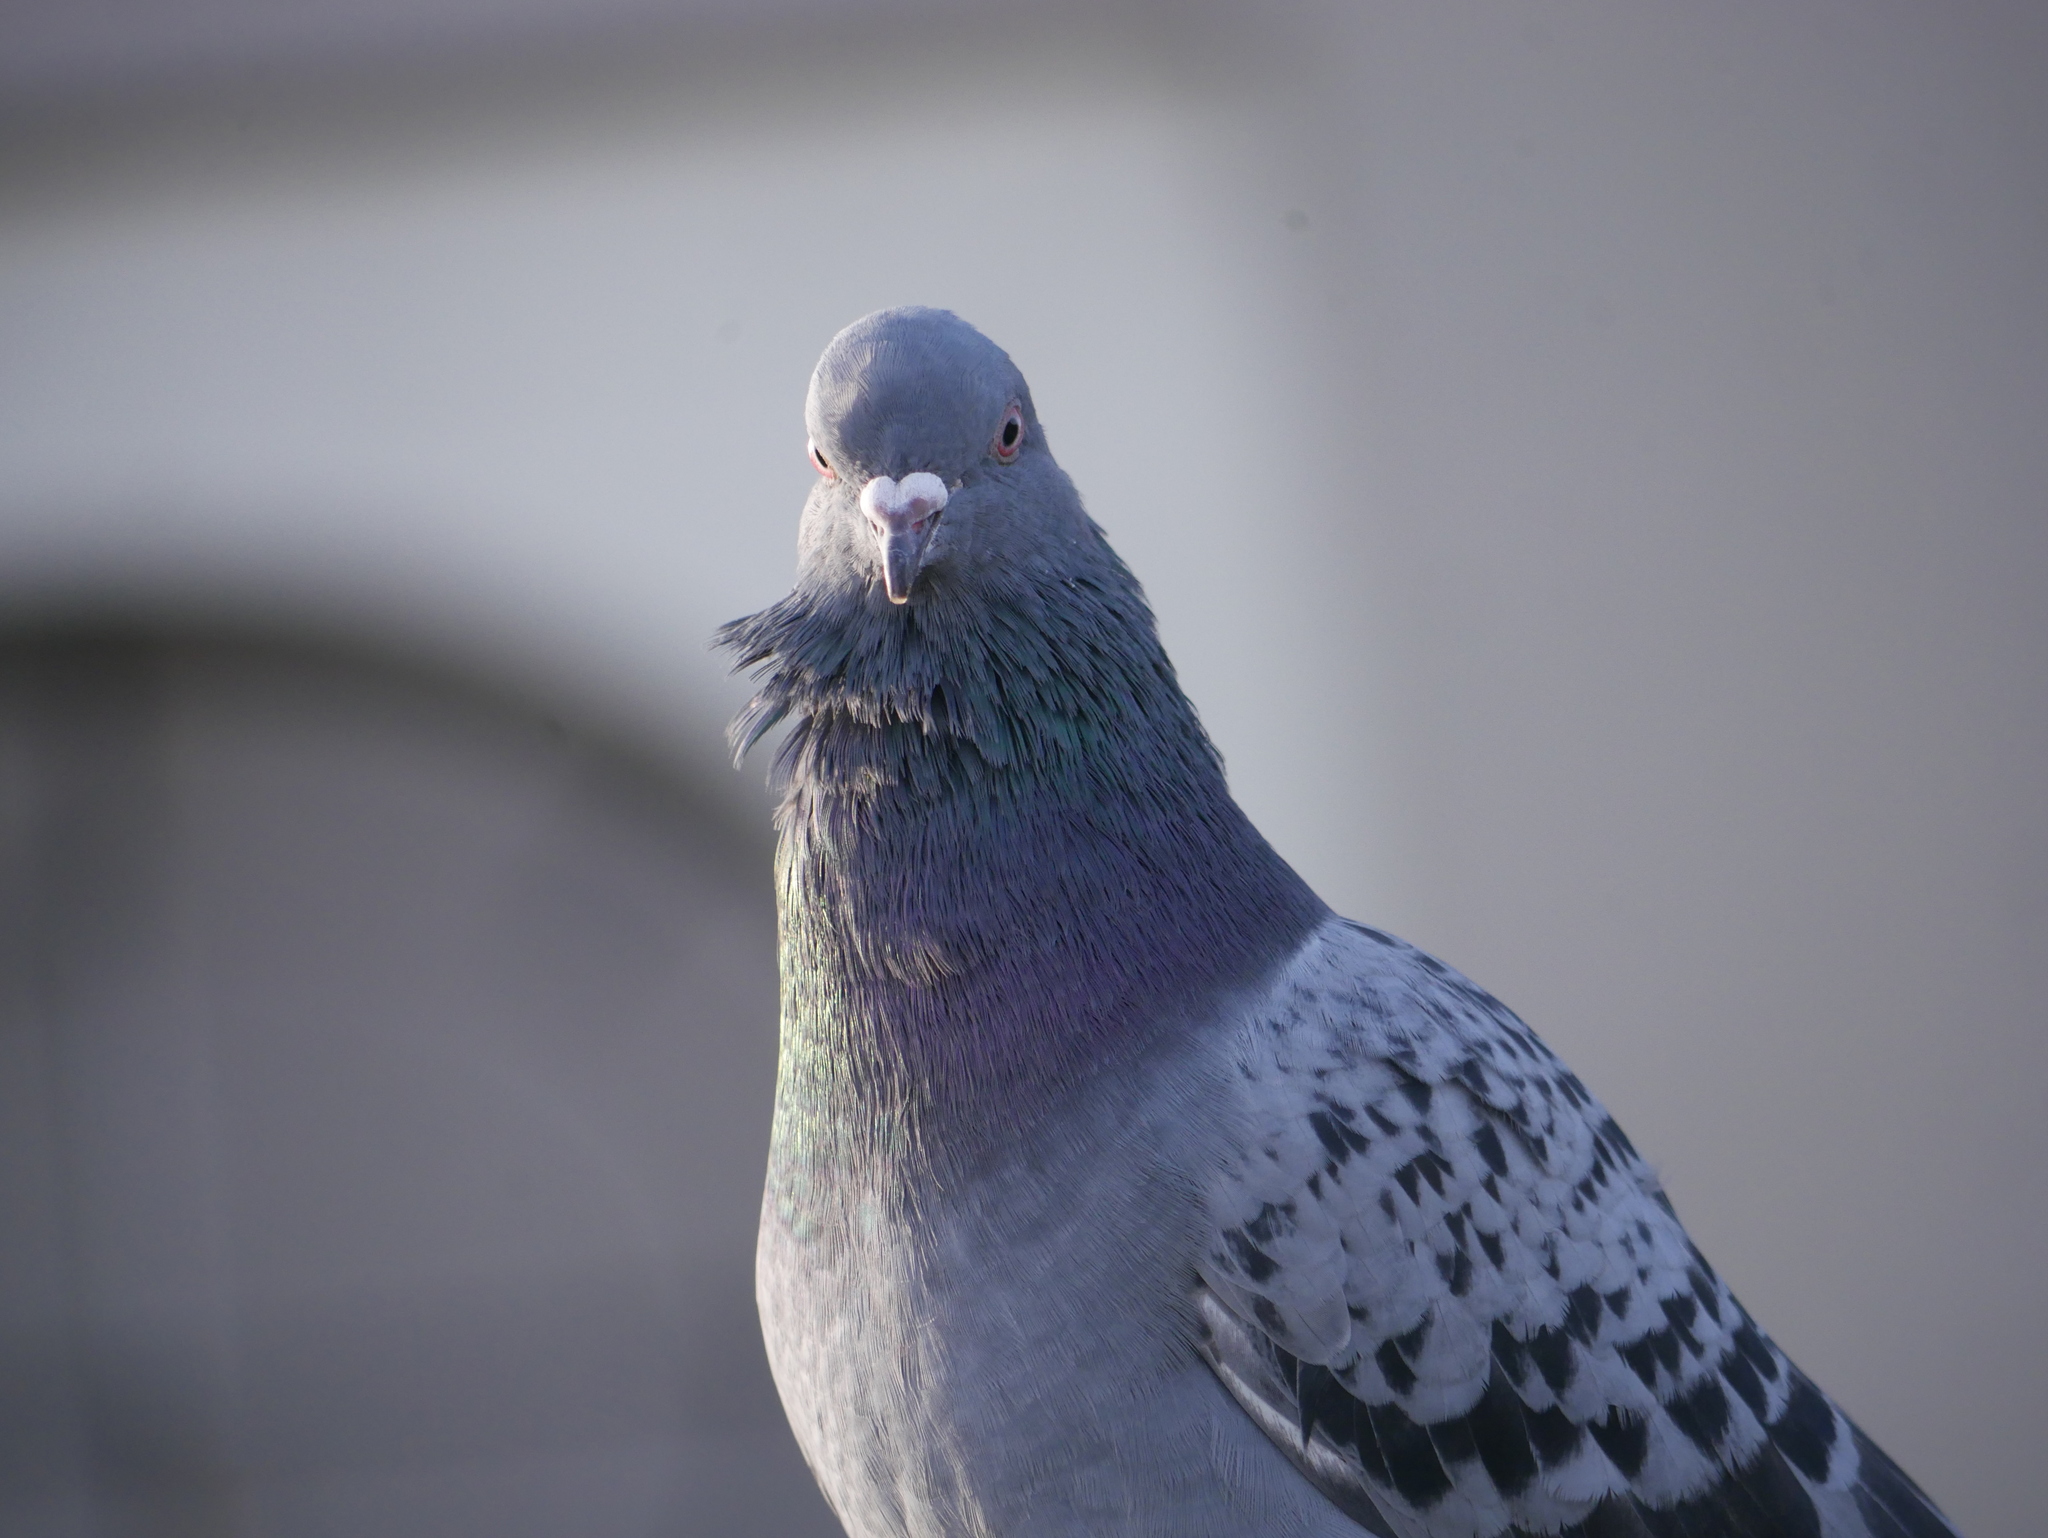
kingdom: Animalia
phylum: Chordata
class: Aves
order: Columbiformes
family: Columbidae
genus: Columba
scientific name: Columba livia
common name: Rock pigeon
